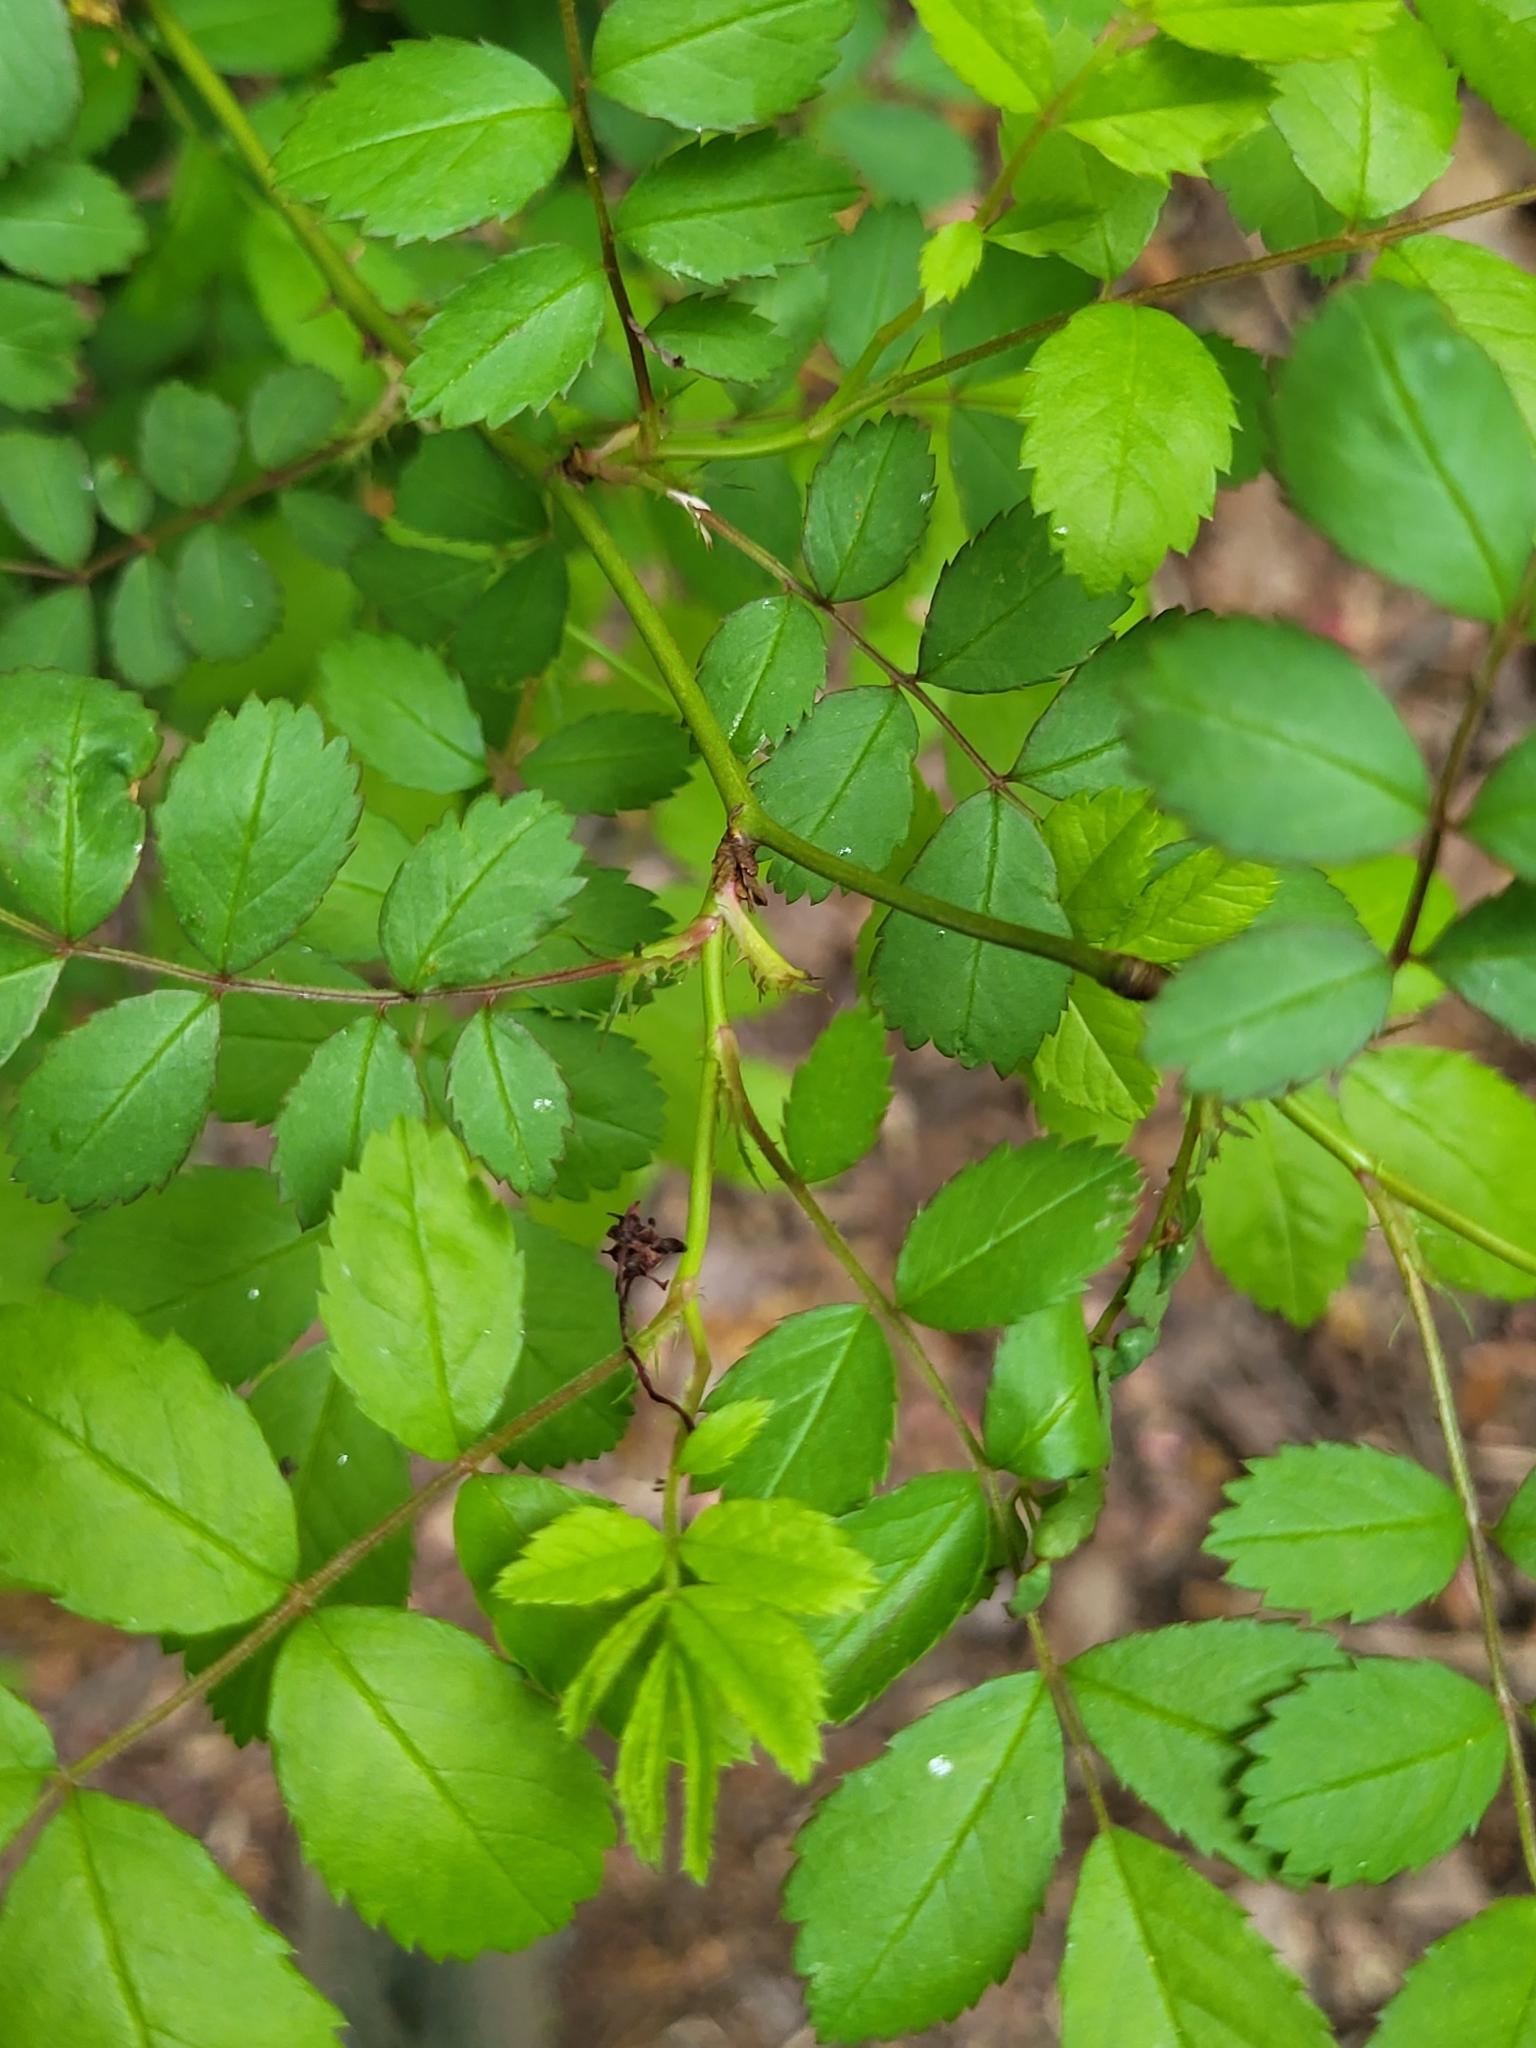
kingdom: Plantae
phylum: Tracheophyta
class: Magnoliopsida
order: Rosales
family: Rosaceae
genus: Rosa
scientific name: Rosa multiflora
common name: Multiflora rose
